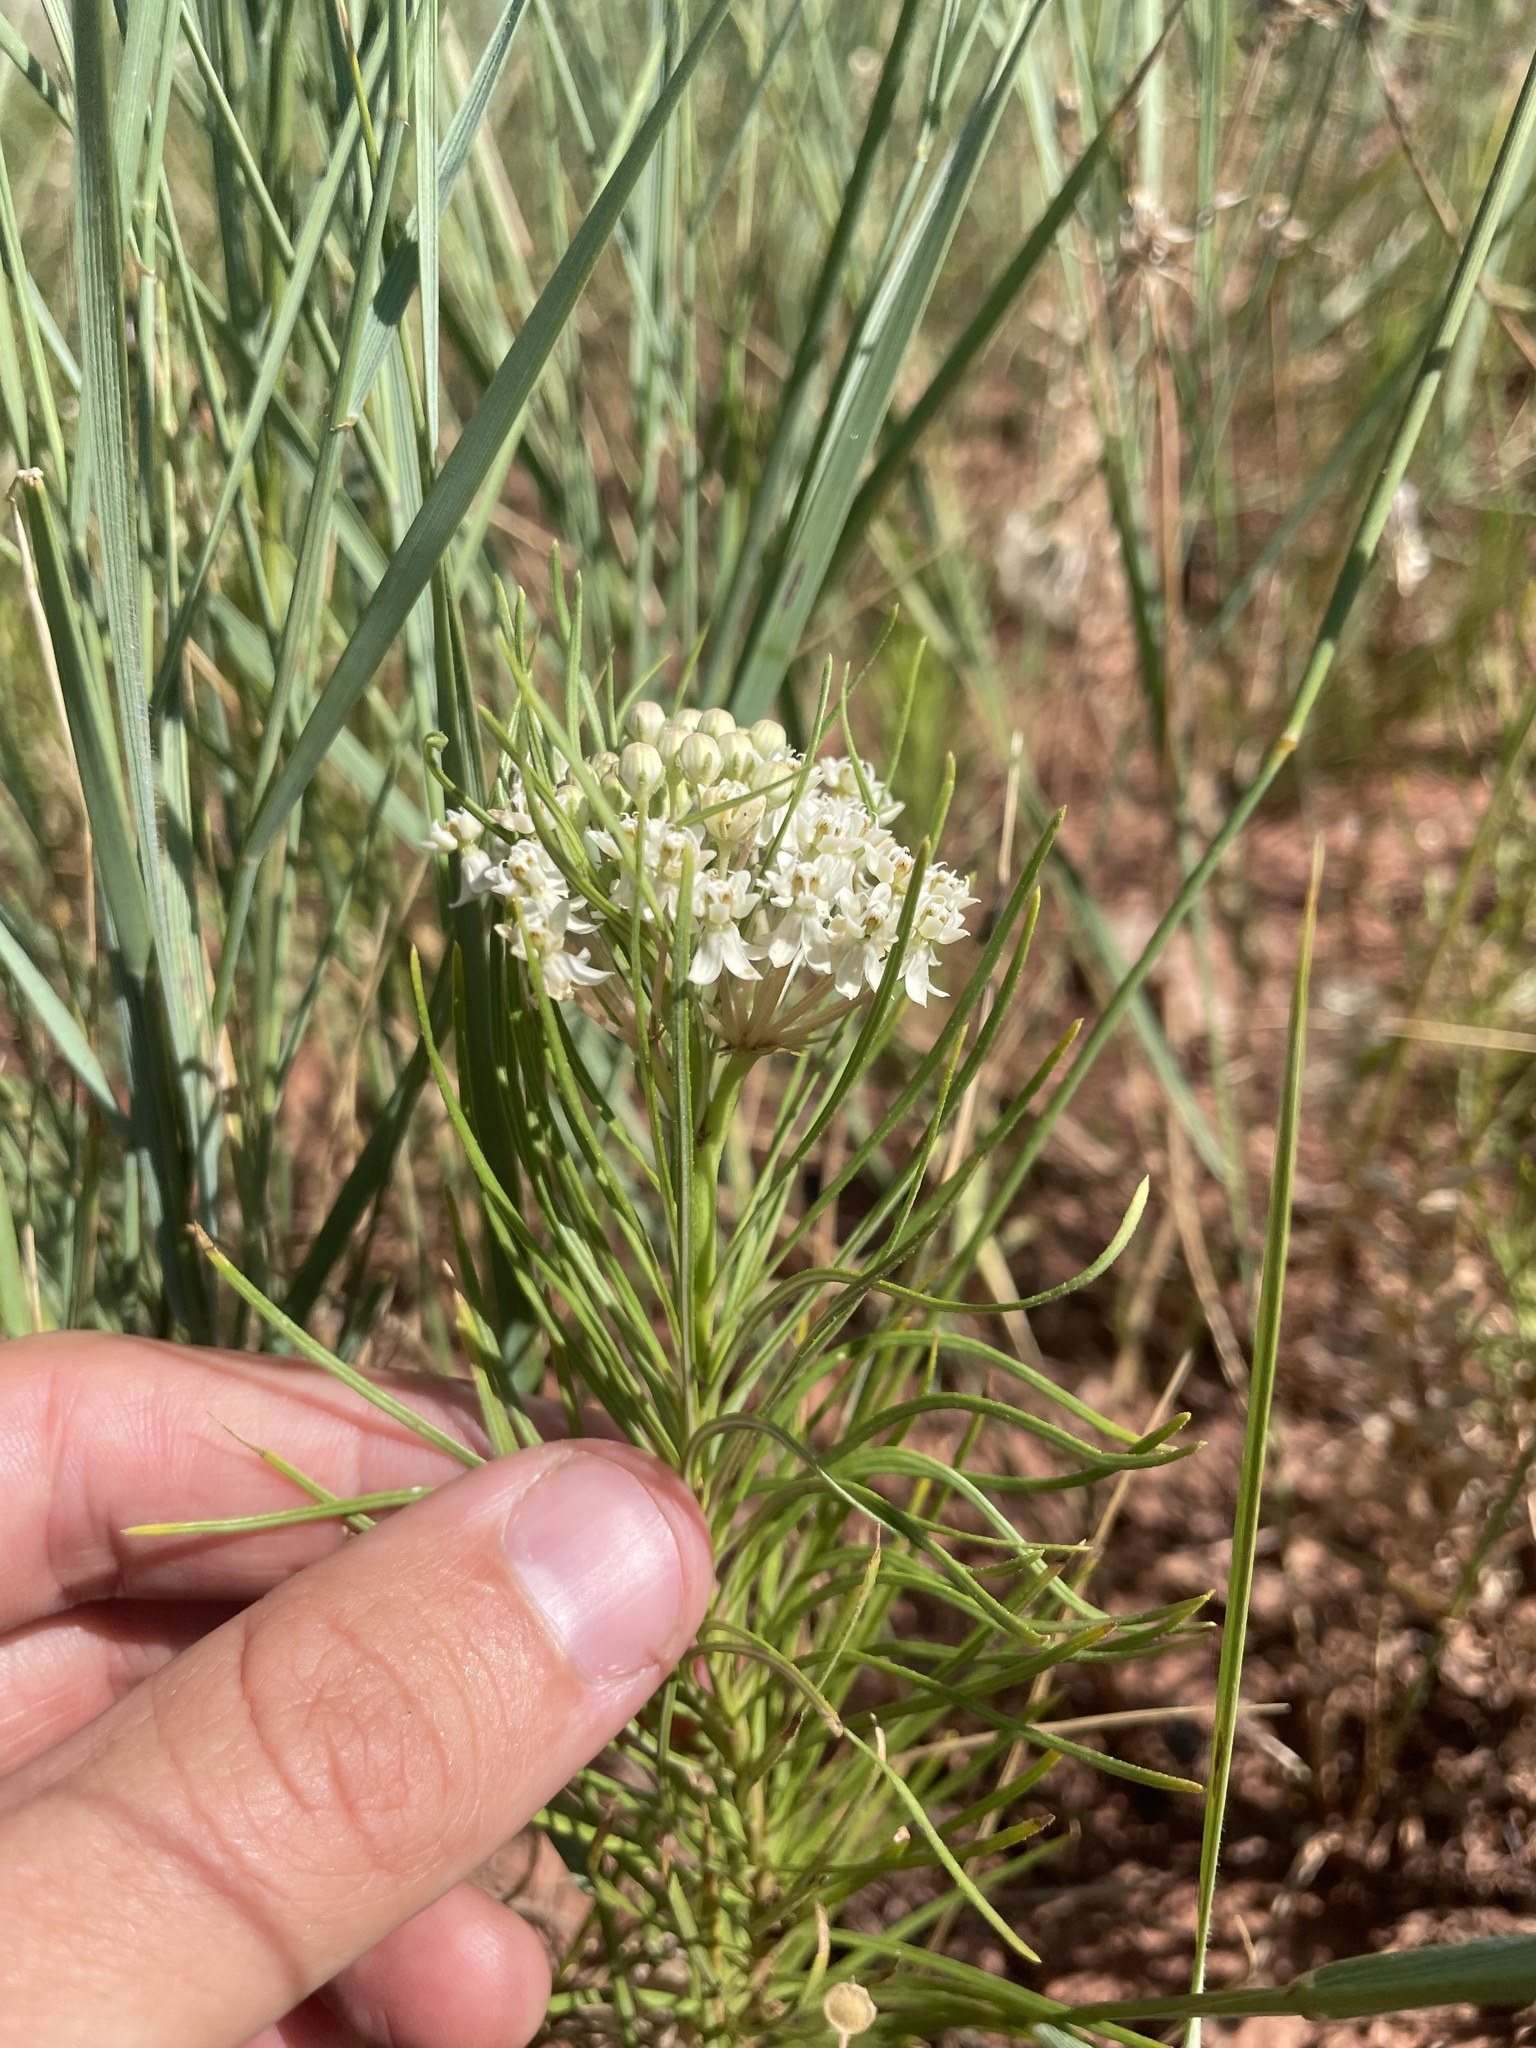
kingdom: Plantae
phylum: Tracheophyta
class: Magnoliopsida
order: Gentianales
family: Apocynaceae
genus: Asclepias
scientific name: Asclepias pumila
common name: Dwarf milkweed
